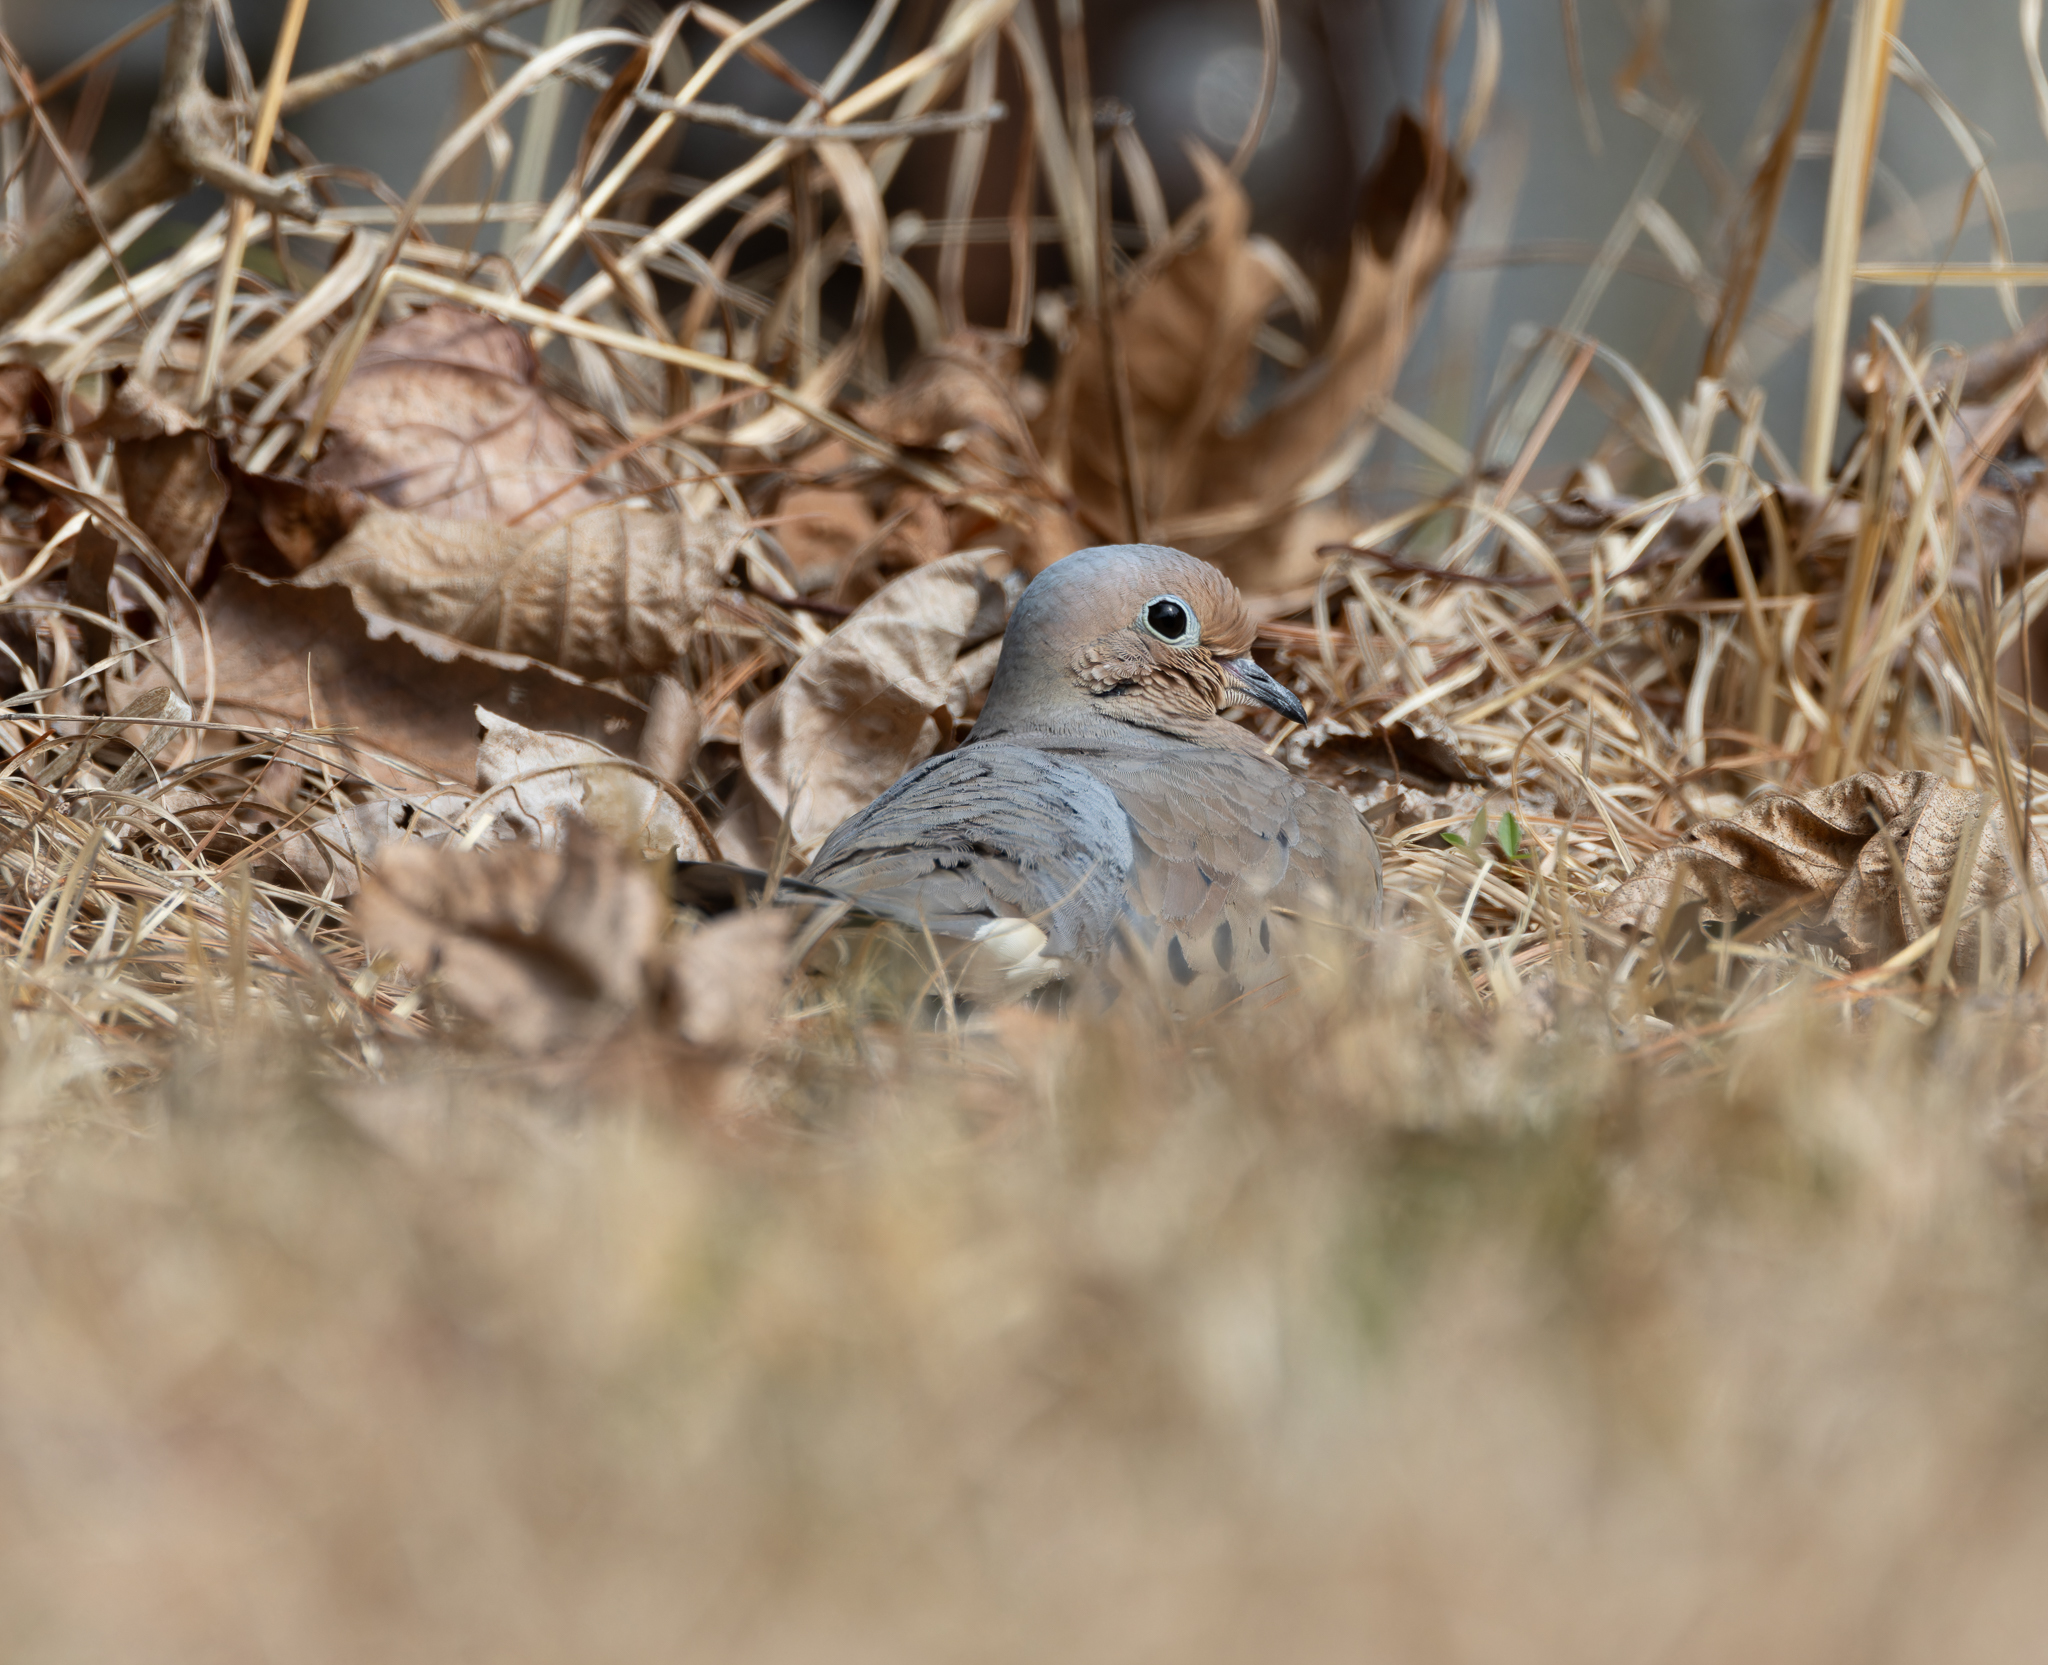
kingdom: Animalia
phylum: Chordata
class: Aves
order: Columbiformes
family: Columbidae
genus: Zenaida
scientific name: Zenaida macroura
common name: Mourning dove
